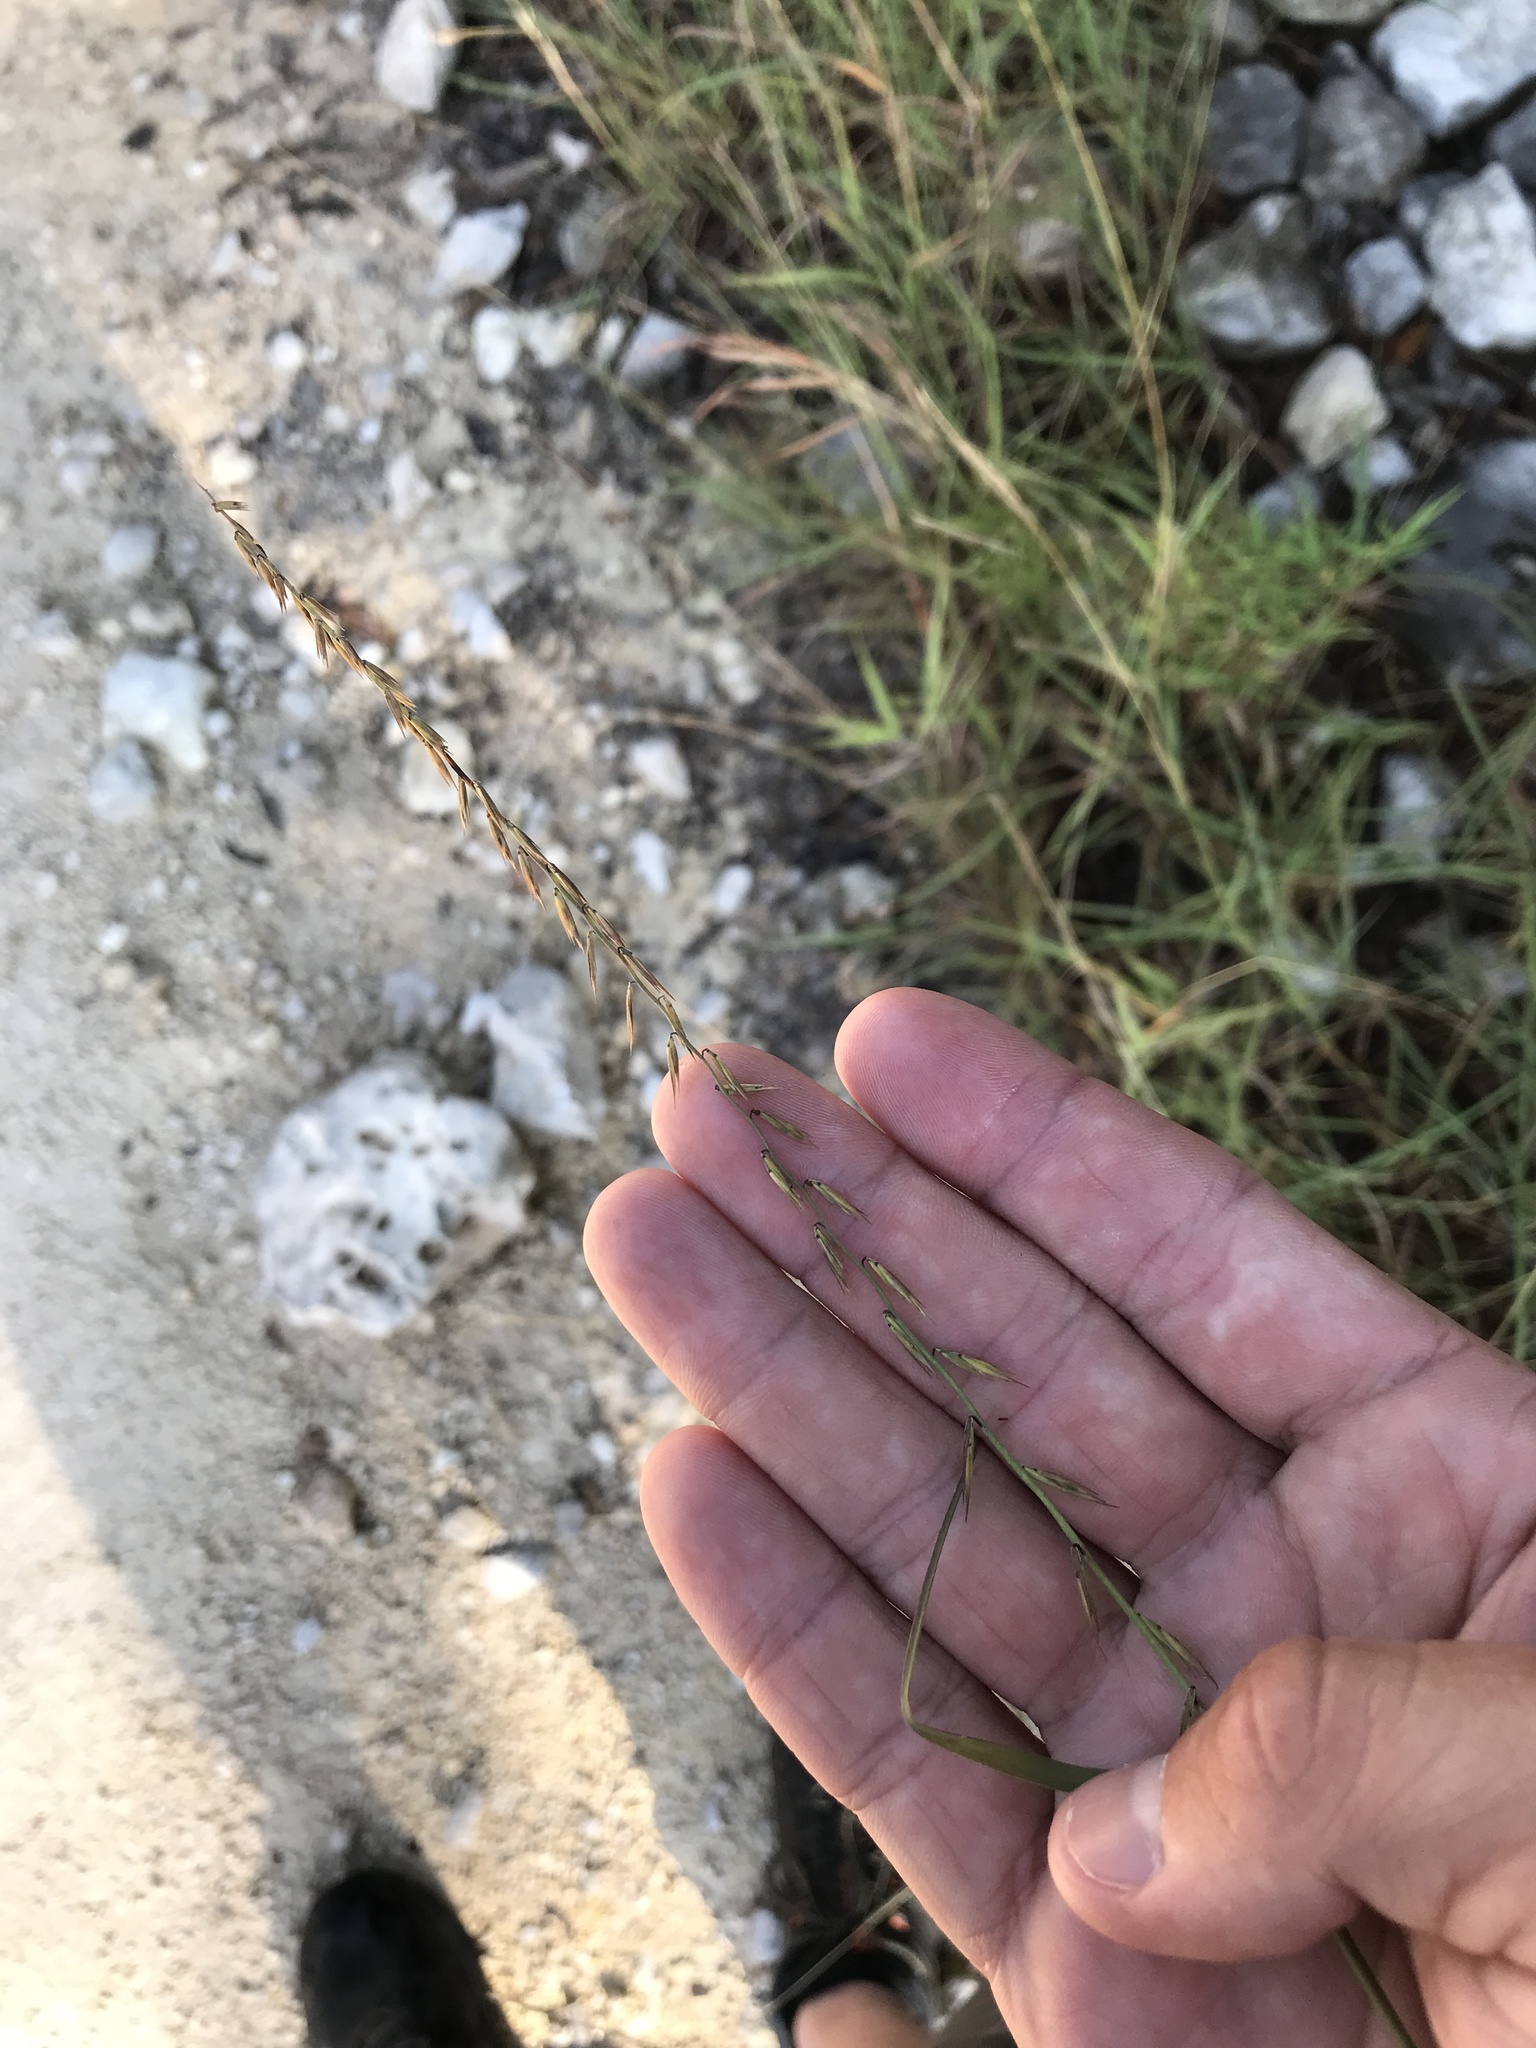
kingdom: Plantae
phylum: Tracheophyta
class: Liliopsida
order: Poales
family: Poaceae
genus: Bouteloua
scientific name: Bouteloua curtipendula
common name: Side-oats grama
